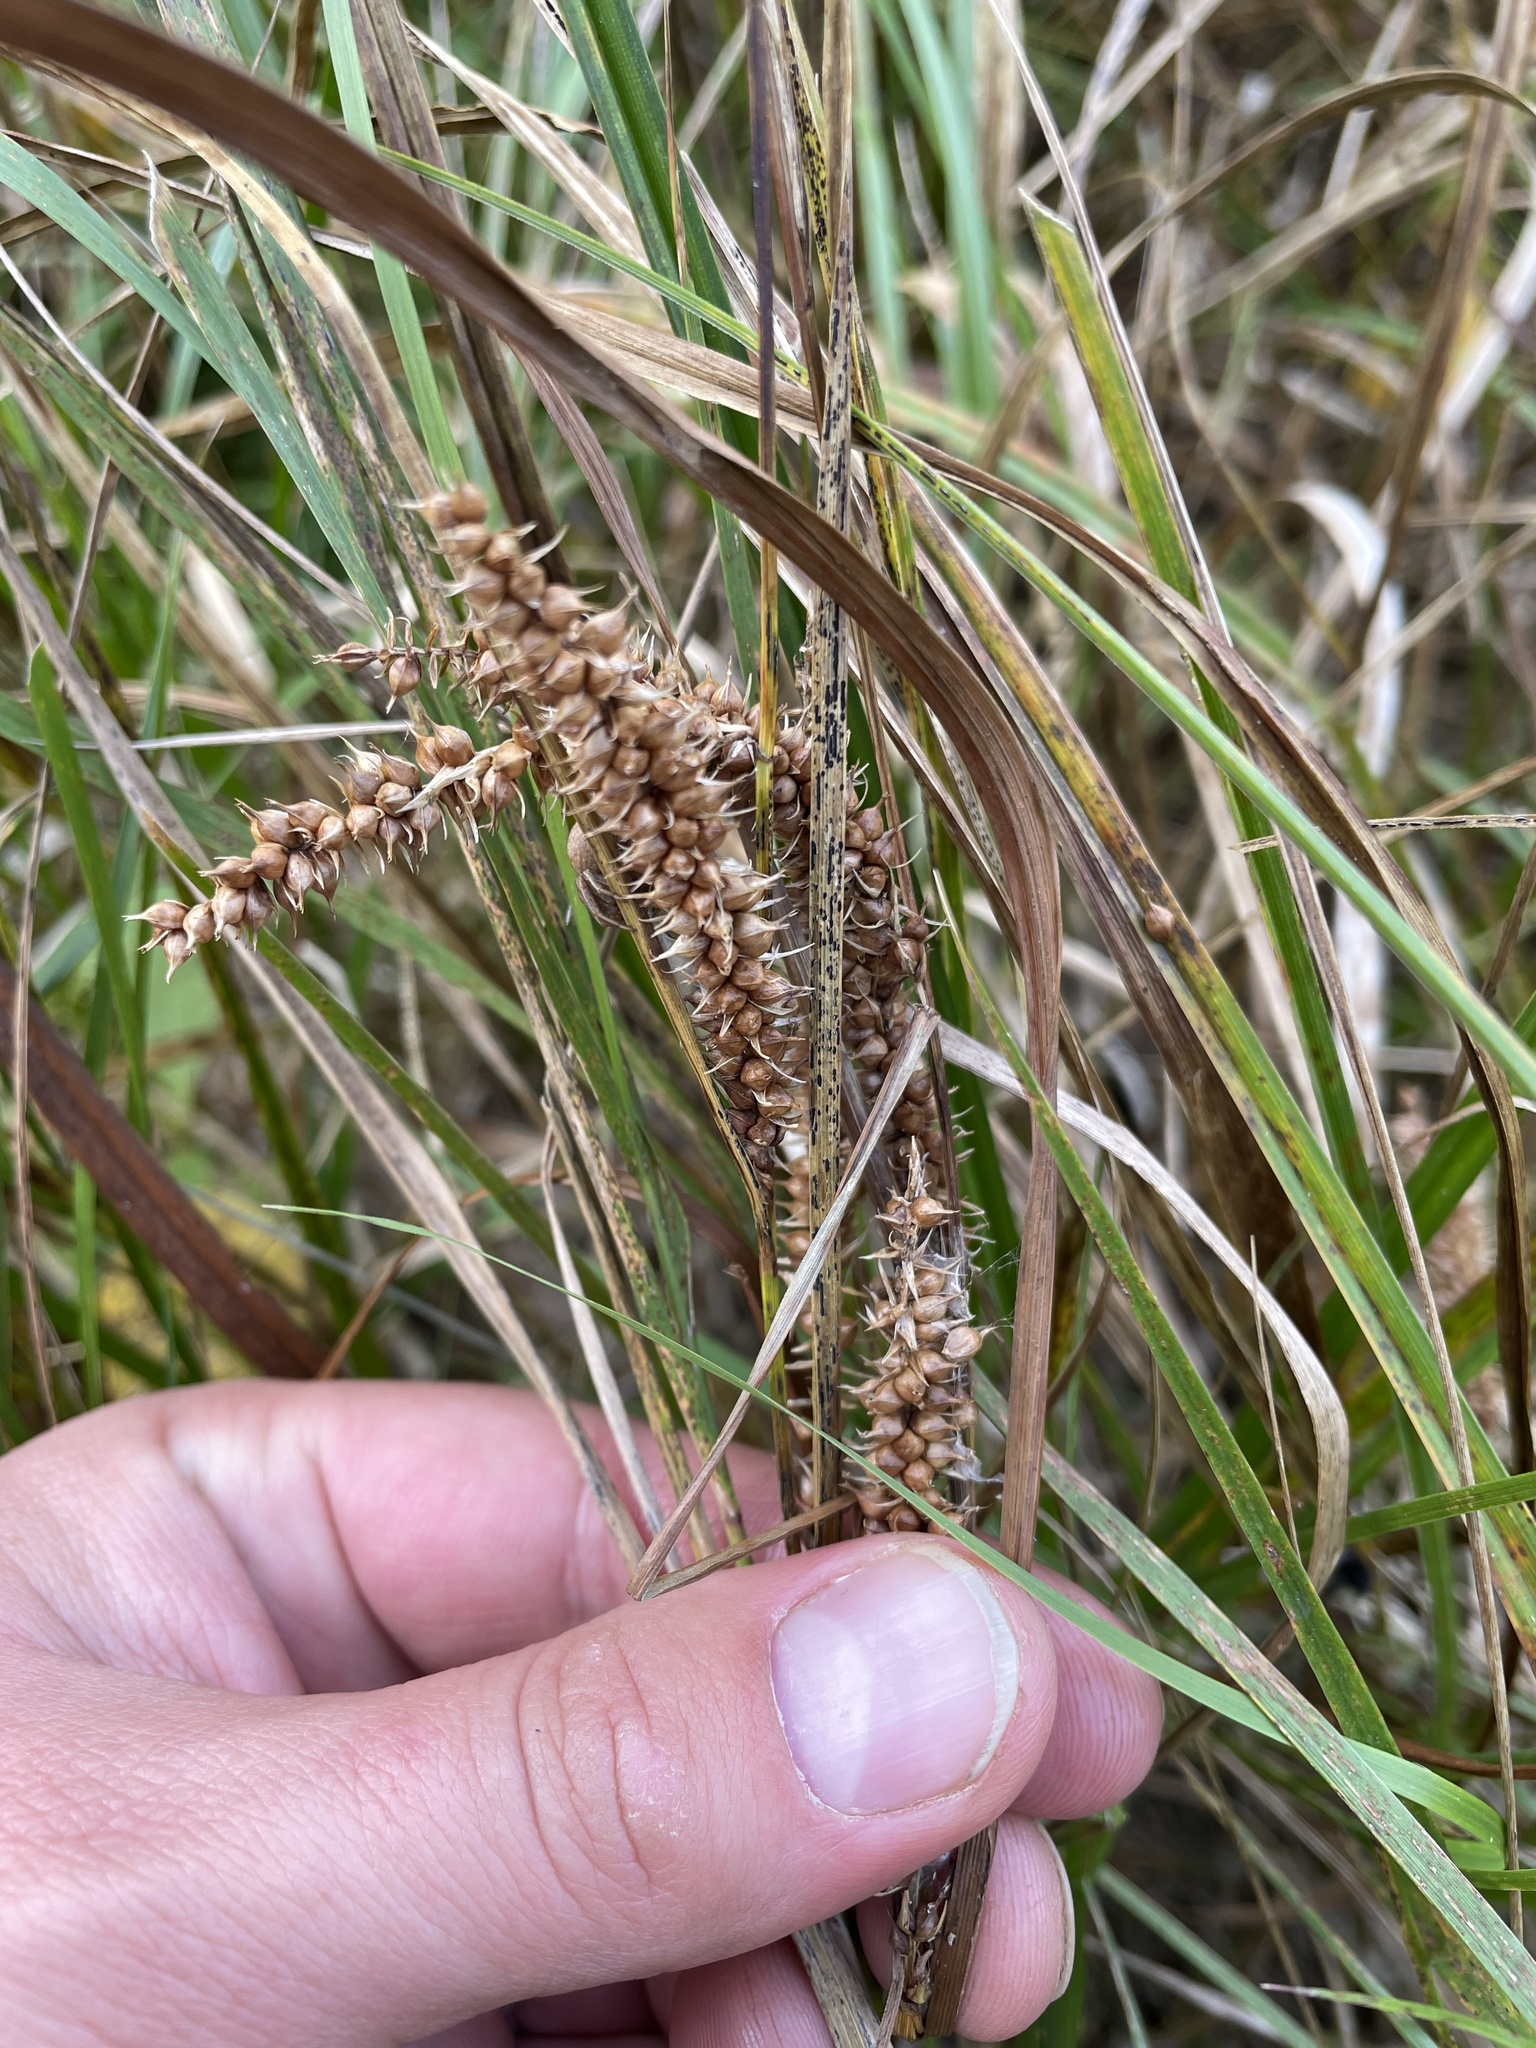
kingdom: Plantae
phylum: Tracheophyta
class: Liliopsida
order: Poales
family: Cyperaceae
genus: Carex
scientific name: Carex utriculata
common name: Beaked sedge
